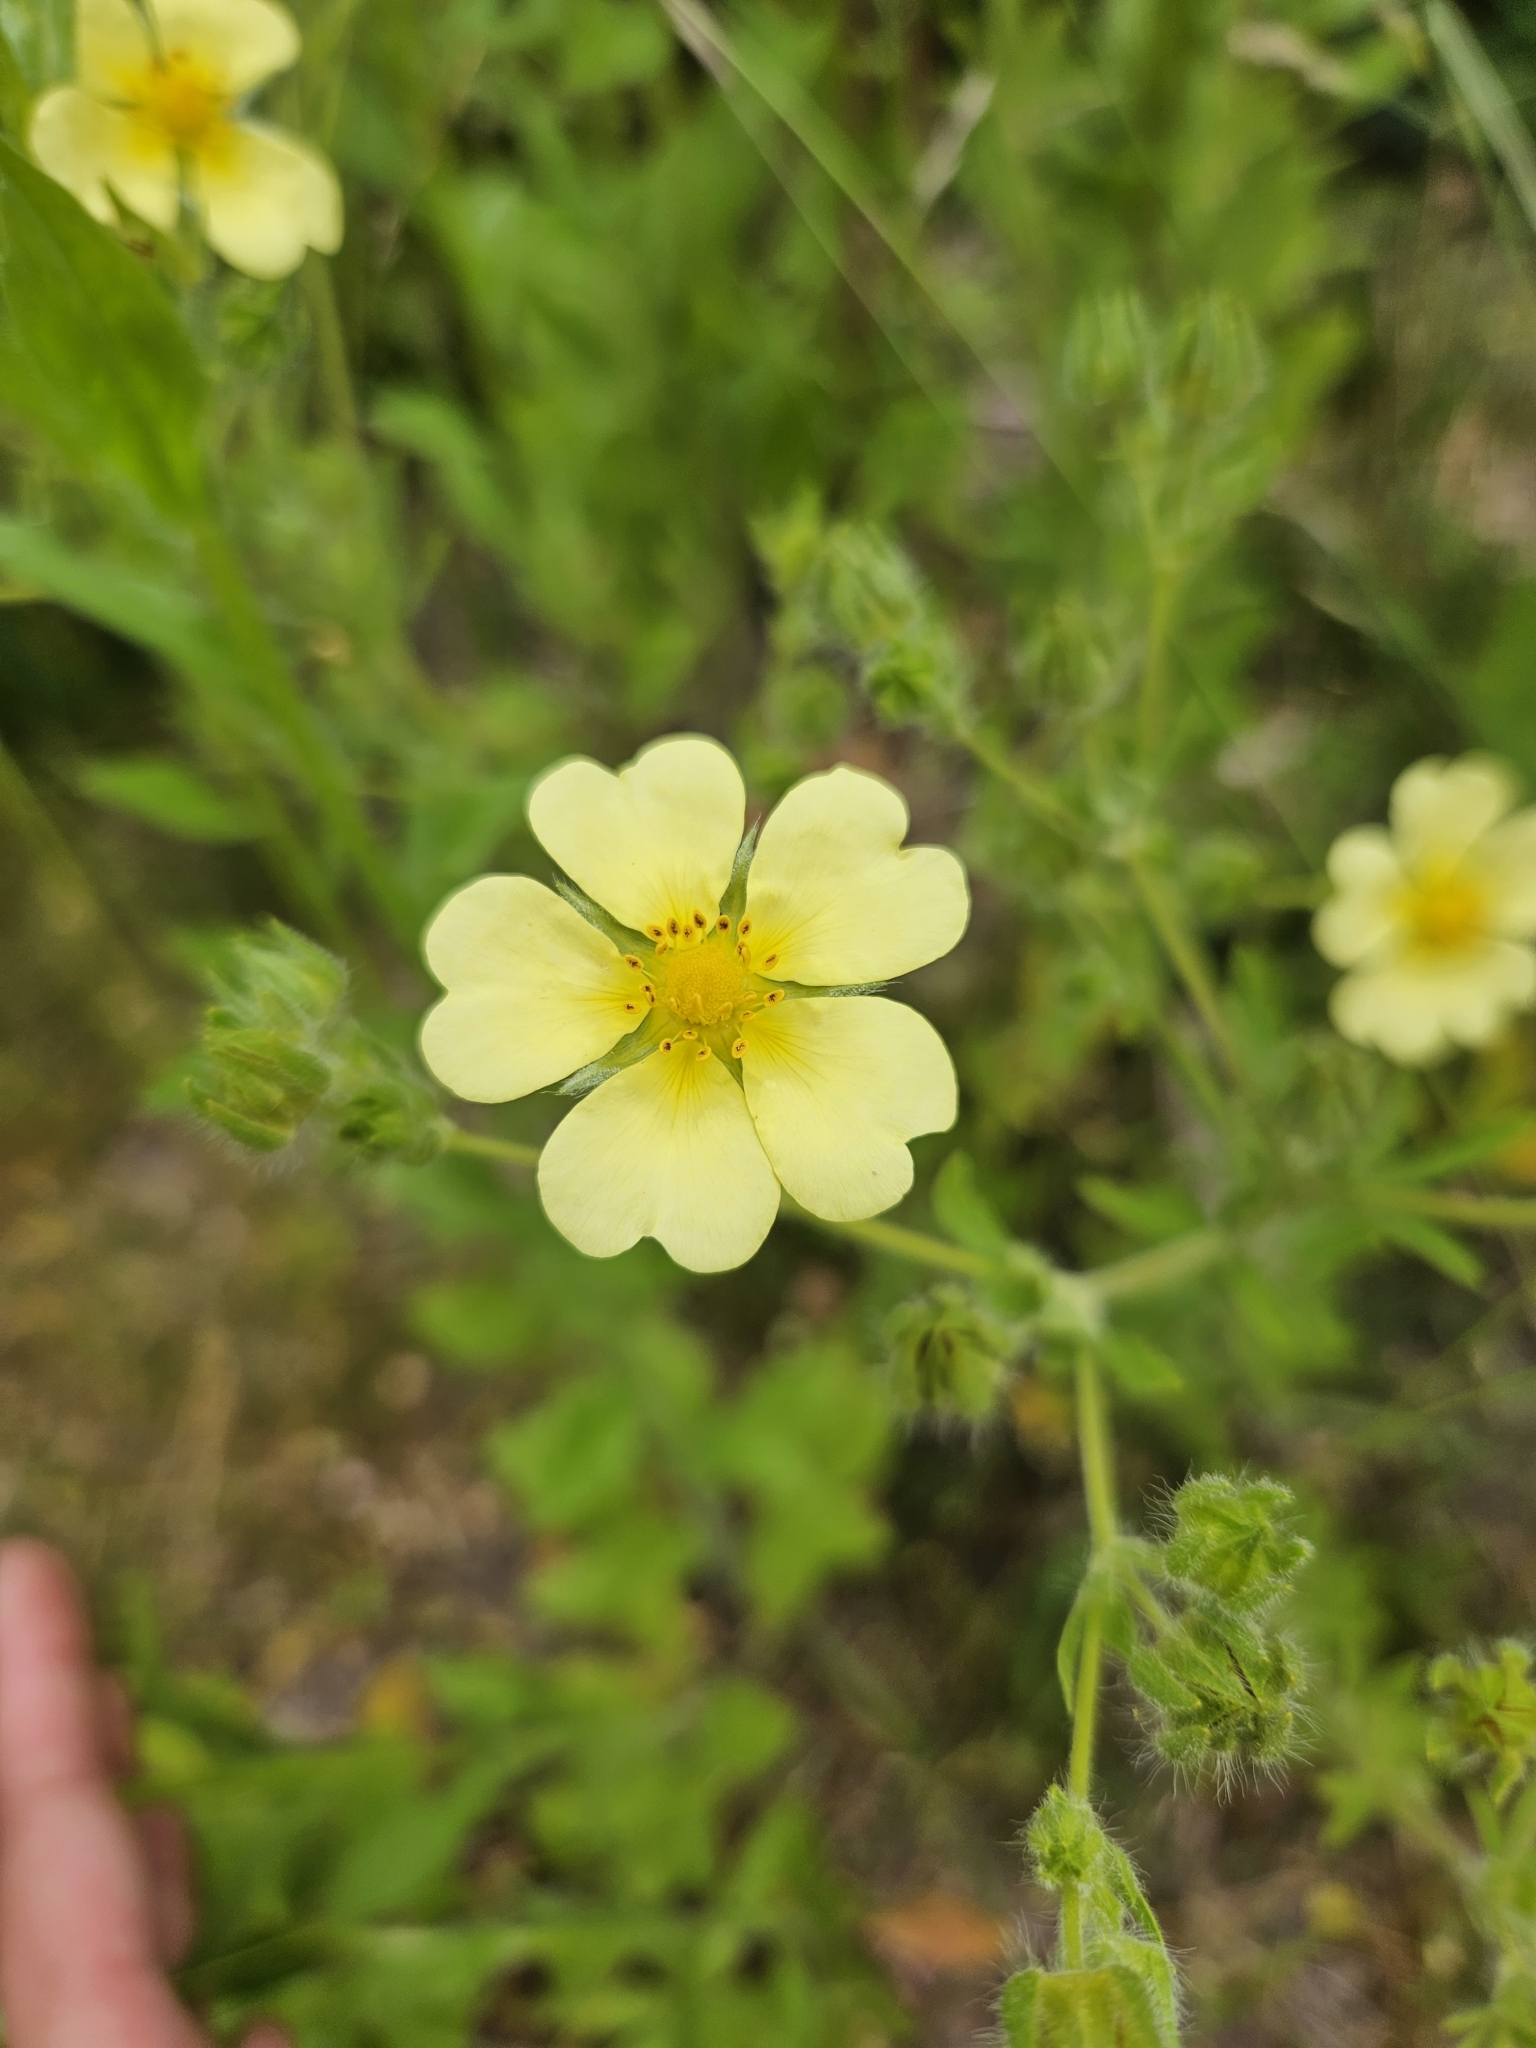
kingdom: Plantae
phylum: Tracheophyta
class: Magnoliopsida
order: Rosales
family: Rosaceae
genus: Potentilla
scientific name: Potentilla recta
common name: Sulphur cinquefoil
